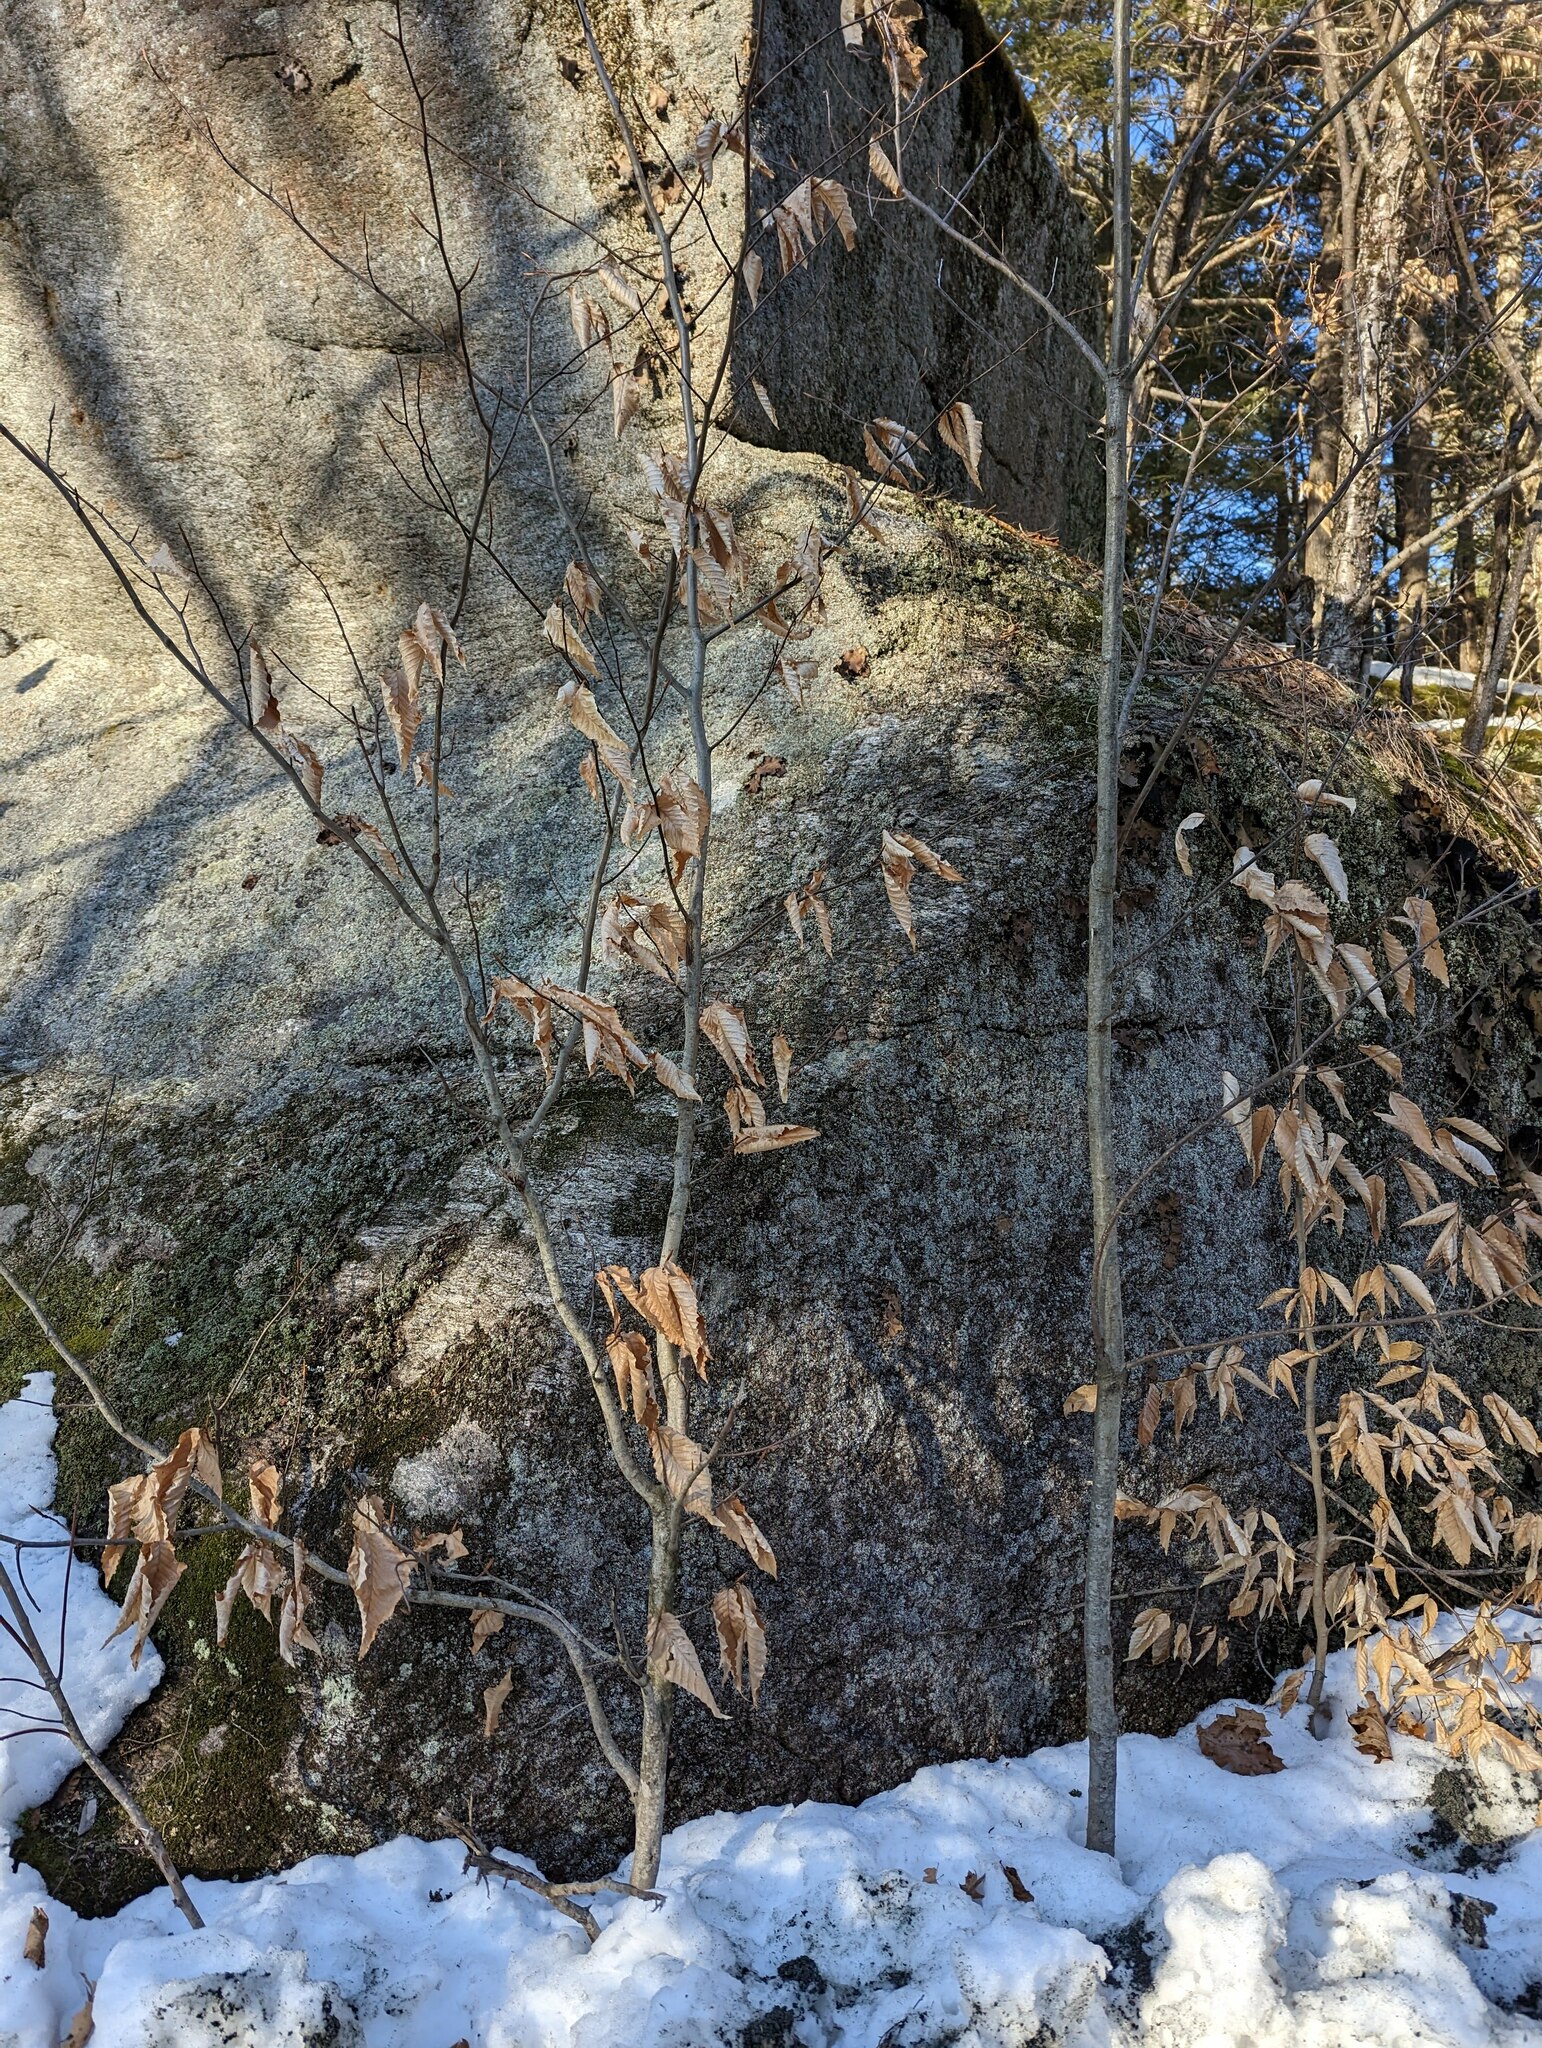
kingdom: Plantae
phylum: Tracheophyta
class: Magnoliopsida
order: Fagales
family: Fagaceae
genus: Fagus
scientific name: Fagus grandifolia
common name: American beech
